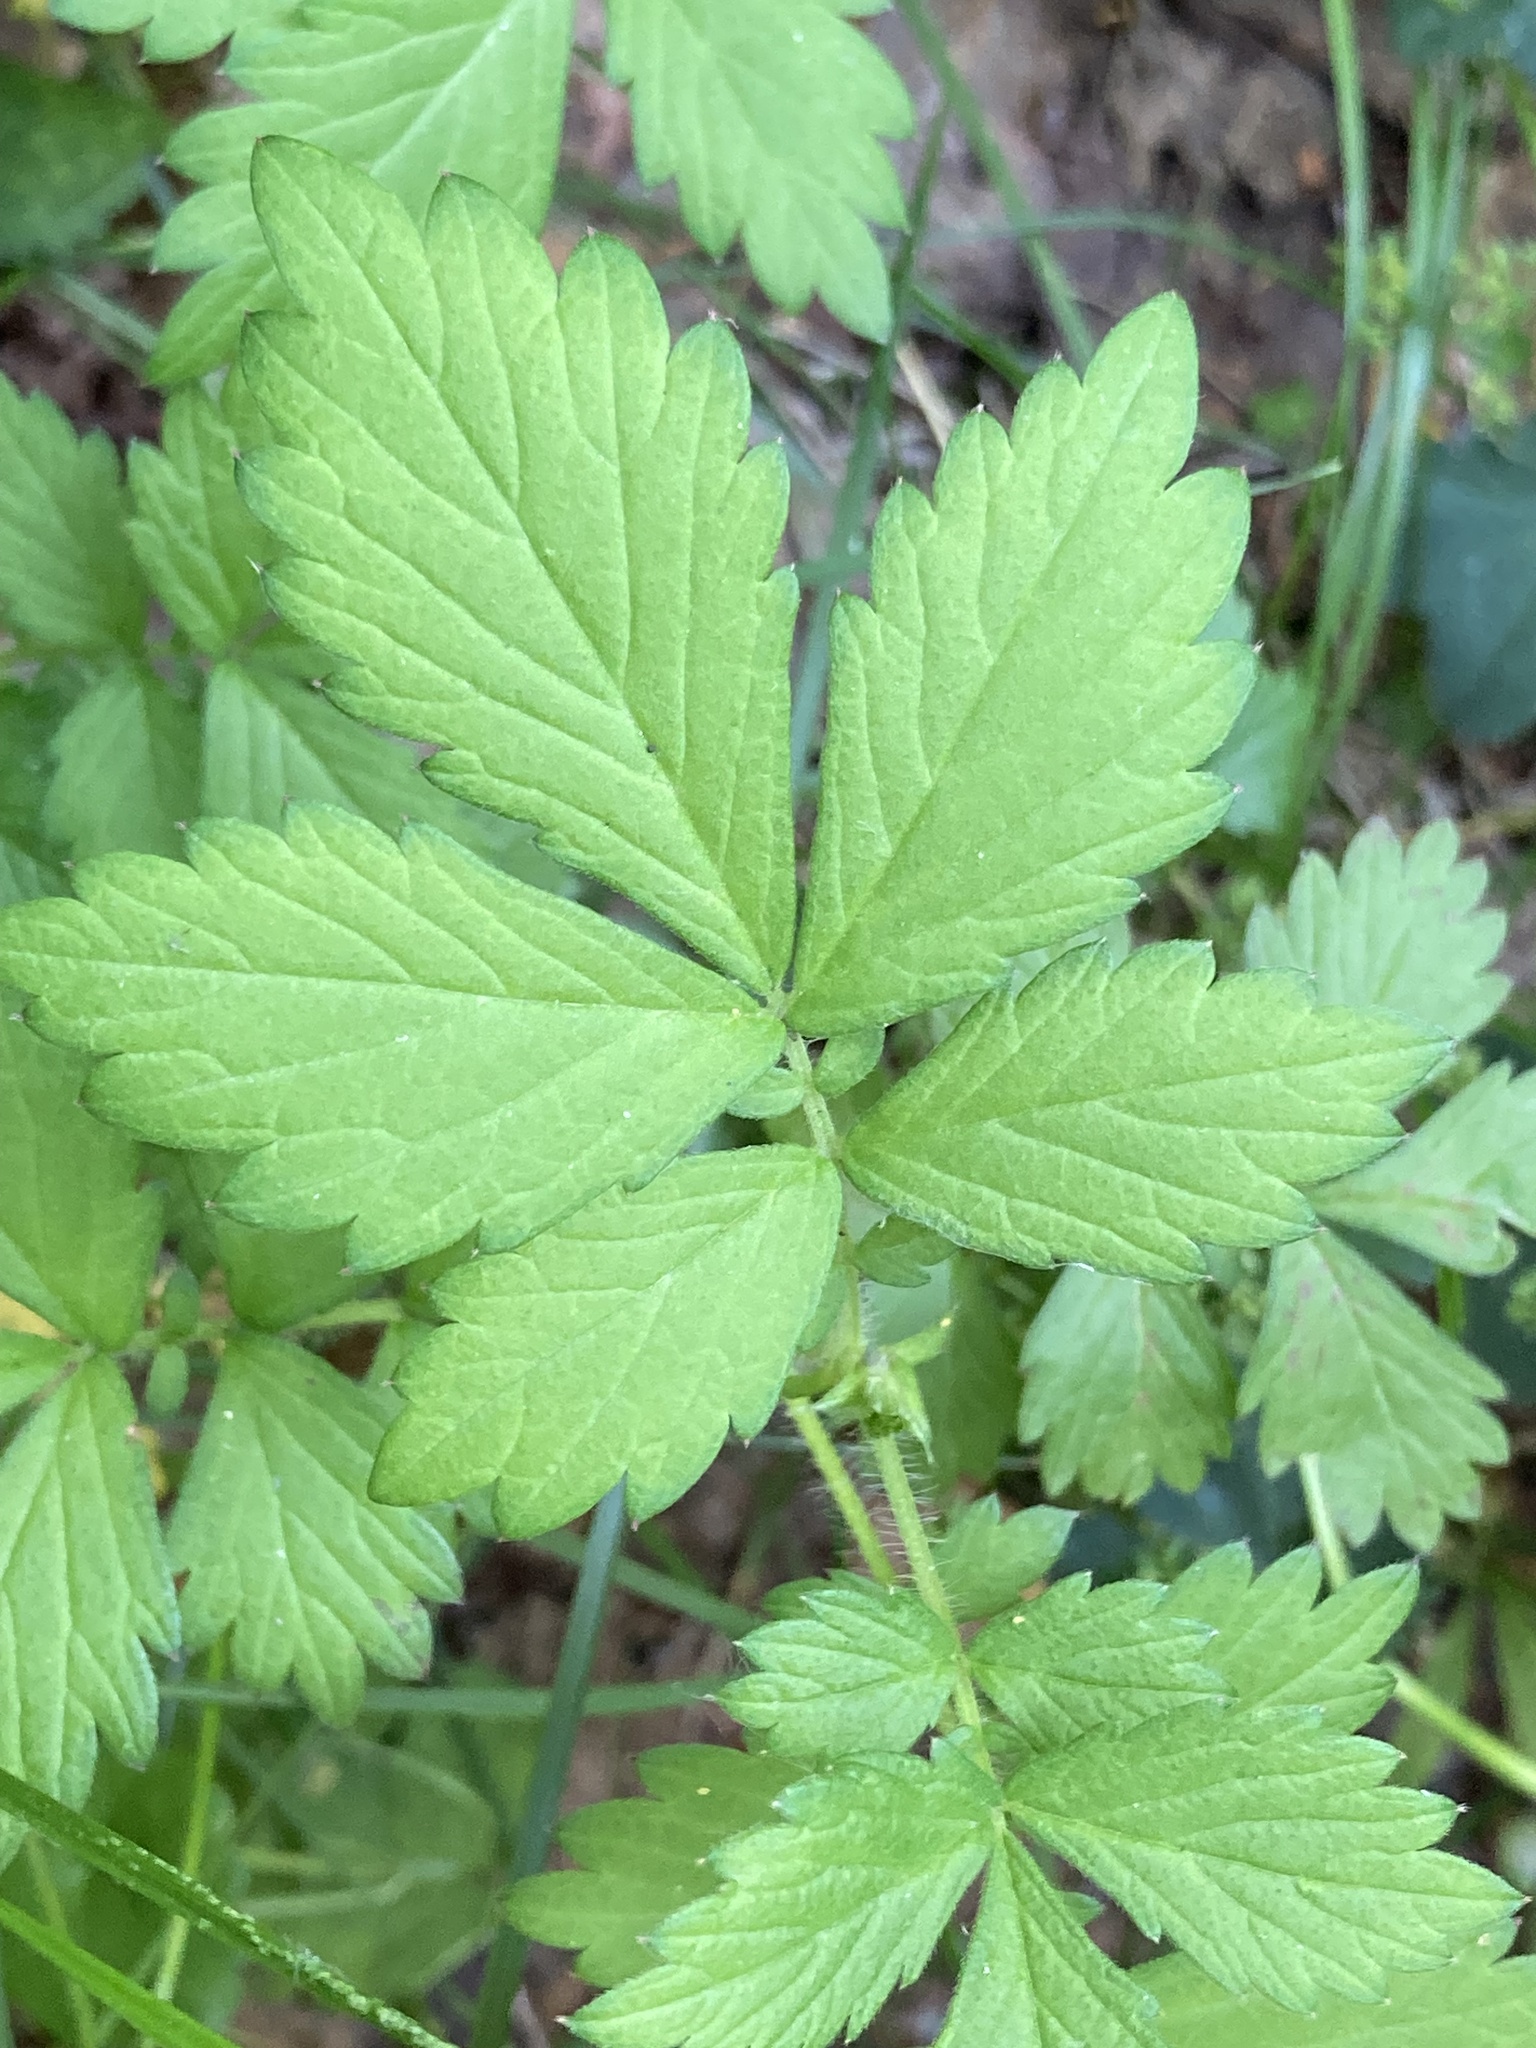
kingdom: Plantae
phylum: Tracheophyta
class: Magnoliopsida
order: Rosales
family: Rosaceae
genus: Agrimonia
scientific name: Agrimonia pilosa
